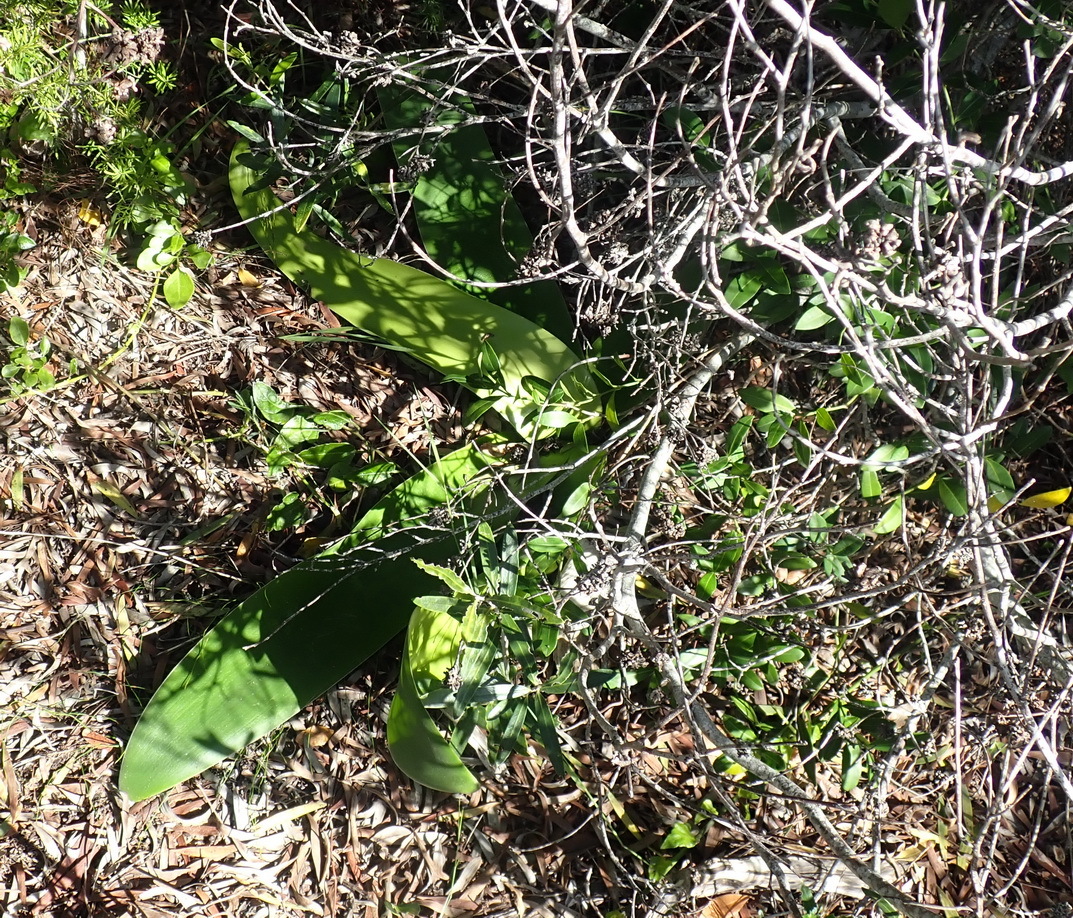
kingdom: Plantae
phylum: Tracheophyta
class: Liliopsida
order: Asparagales
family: Amaryllidaceae
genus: Brunsvigia
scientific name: Brunsvigia orientalis
